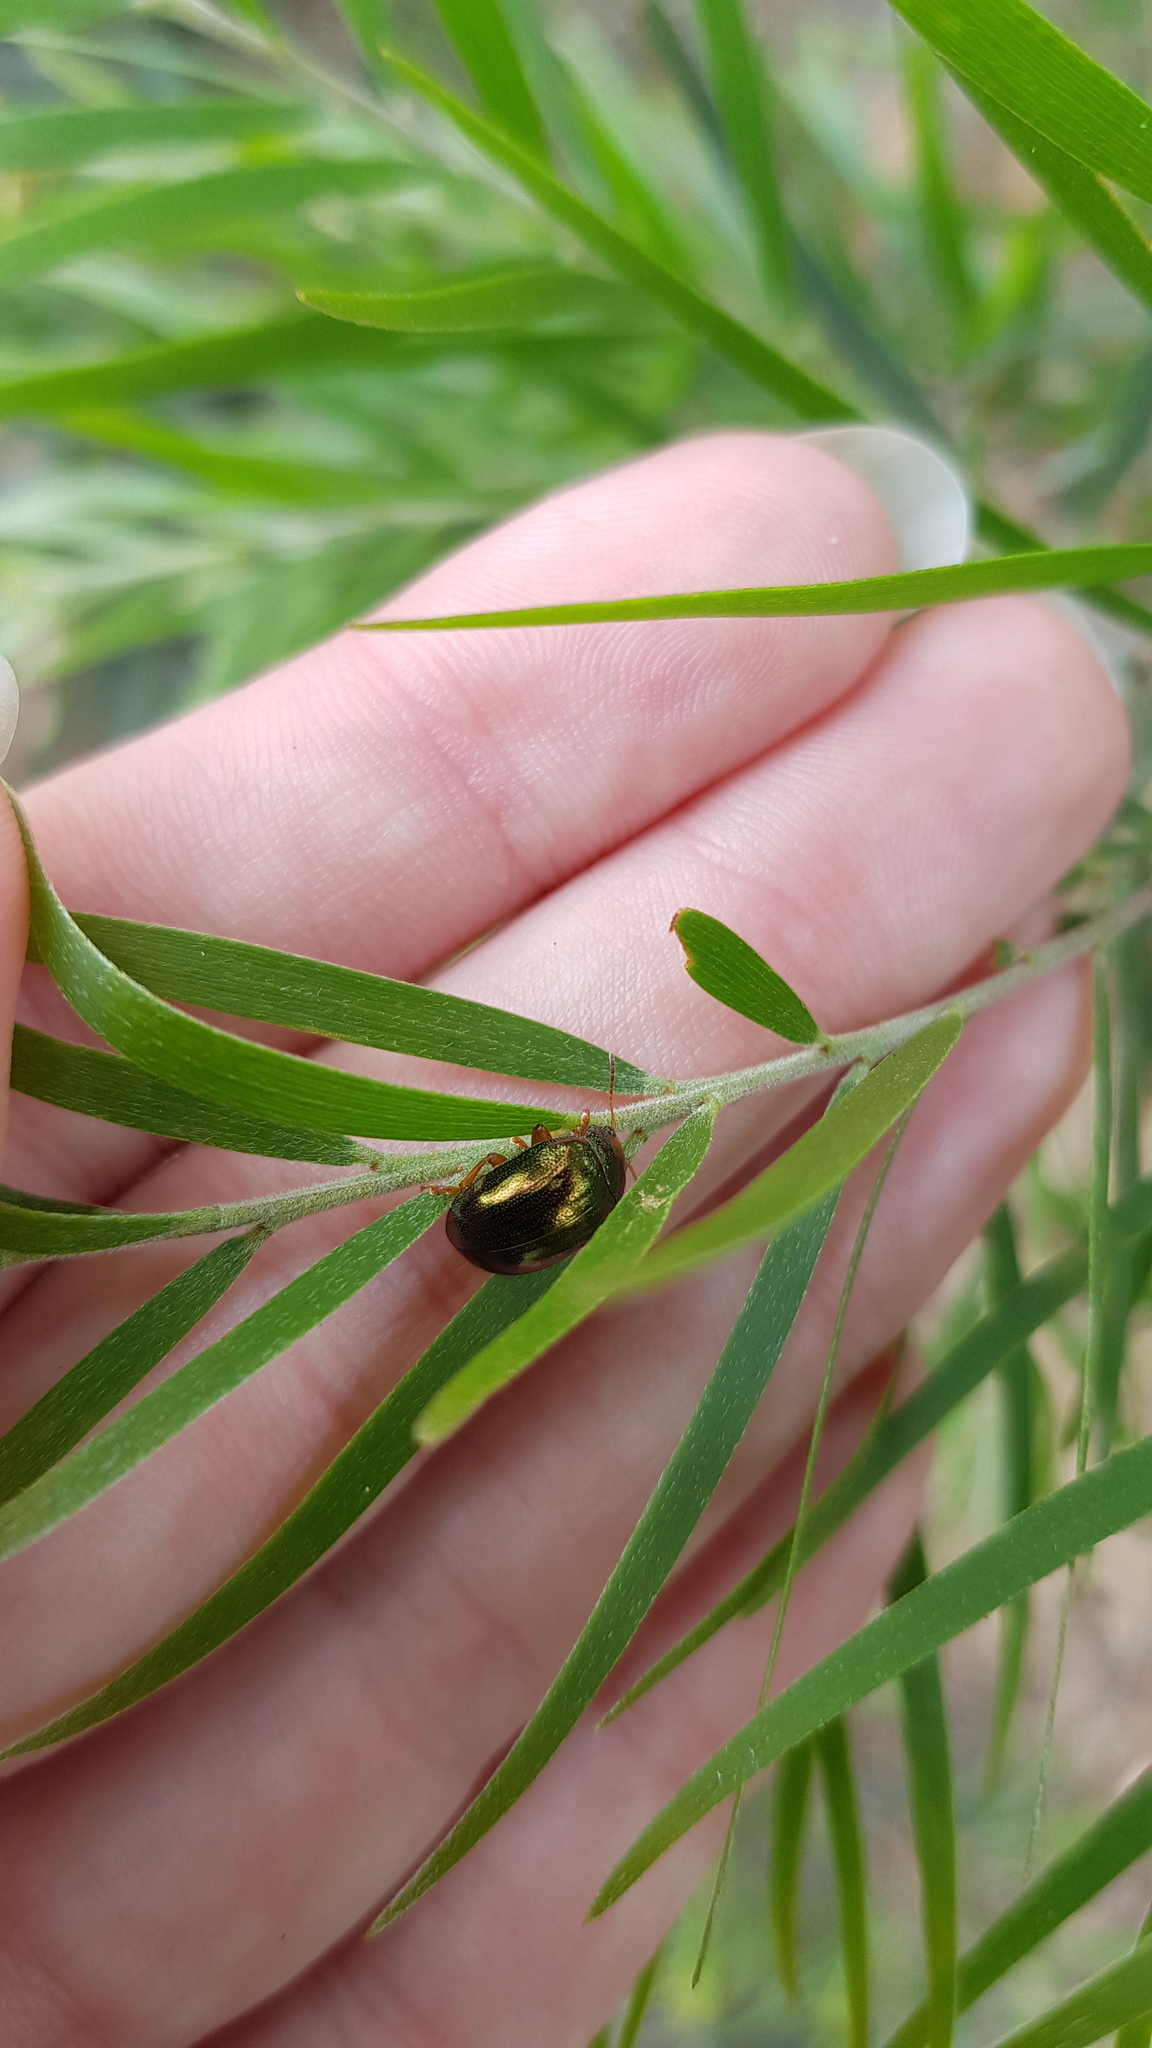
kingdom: Animalia
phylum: Arthropoda
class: Insecta
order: Coleoptera
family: Chrysomelidae
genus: Calomela
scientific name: Calomela
